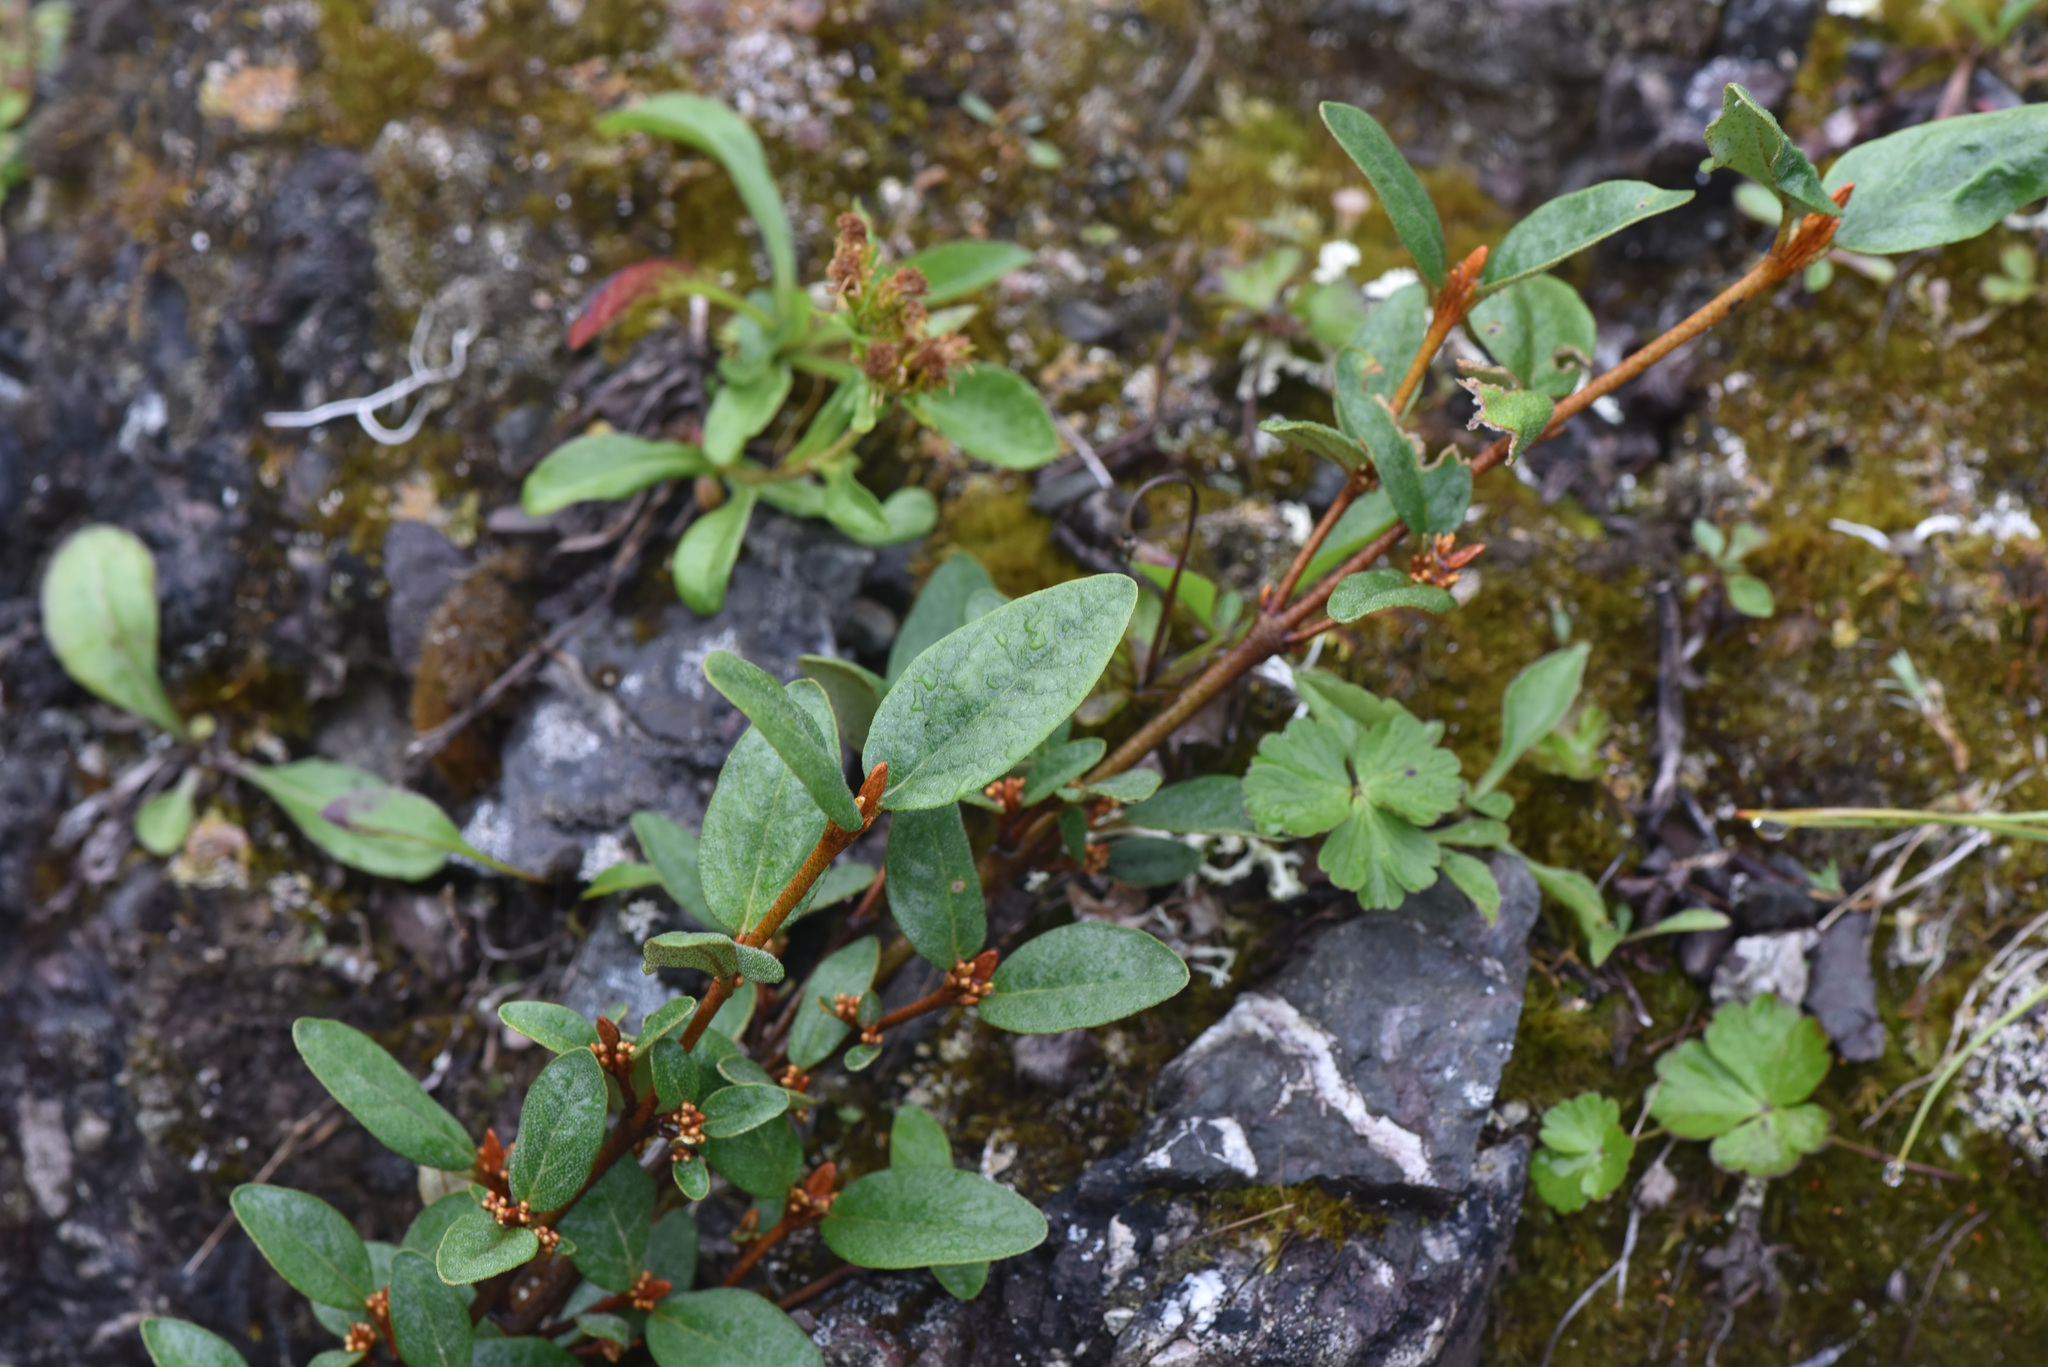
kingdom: Plantae
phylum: Tracheophyta
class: Magnoliopsida
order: Rosales
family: Elaeagnaceae
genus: Shepherdia
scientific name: Shepherdia canadensis
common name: Soapberry
